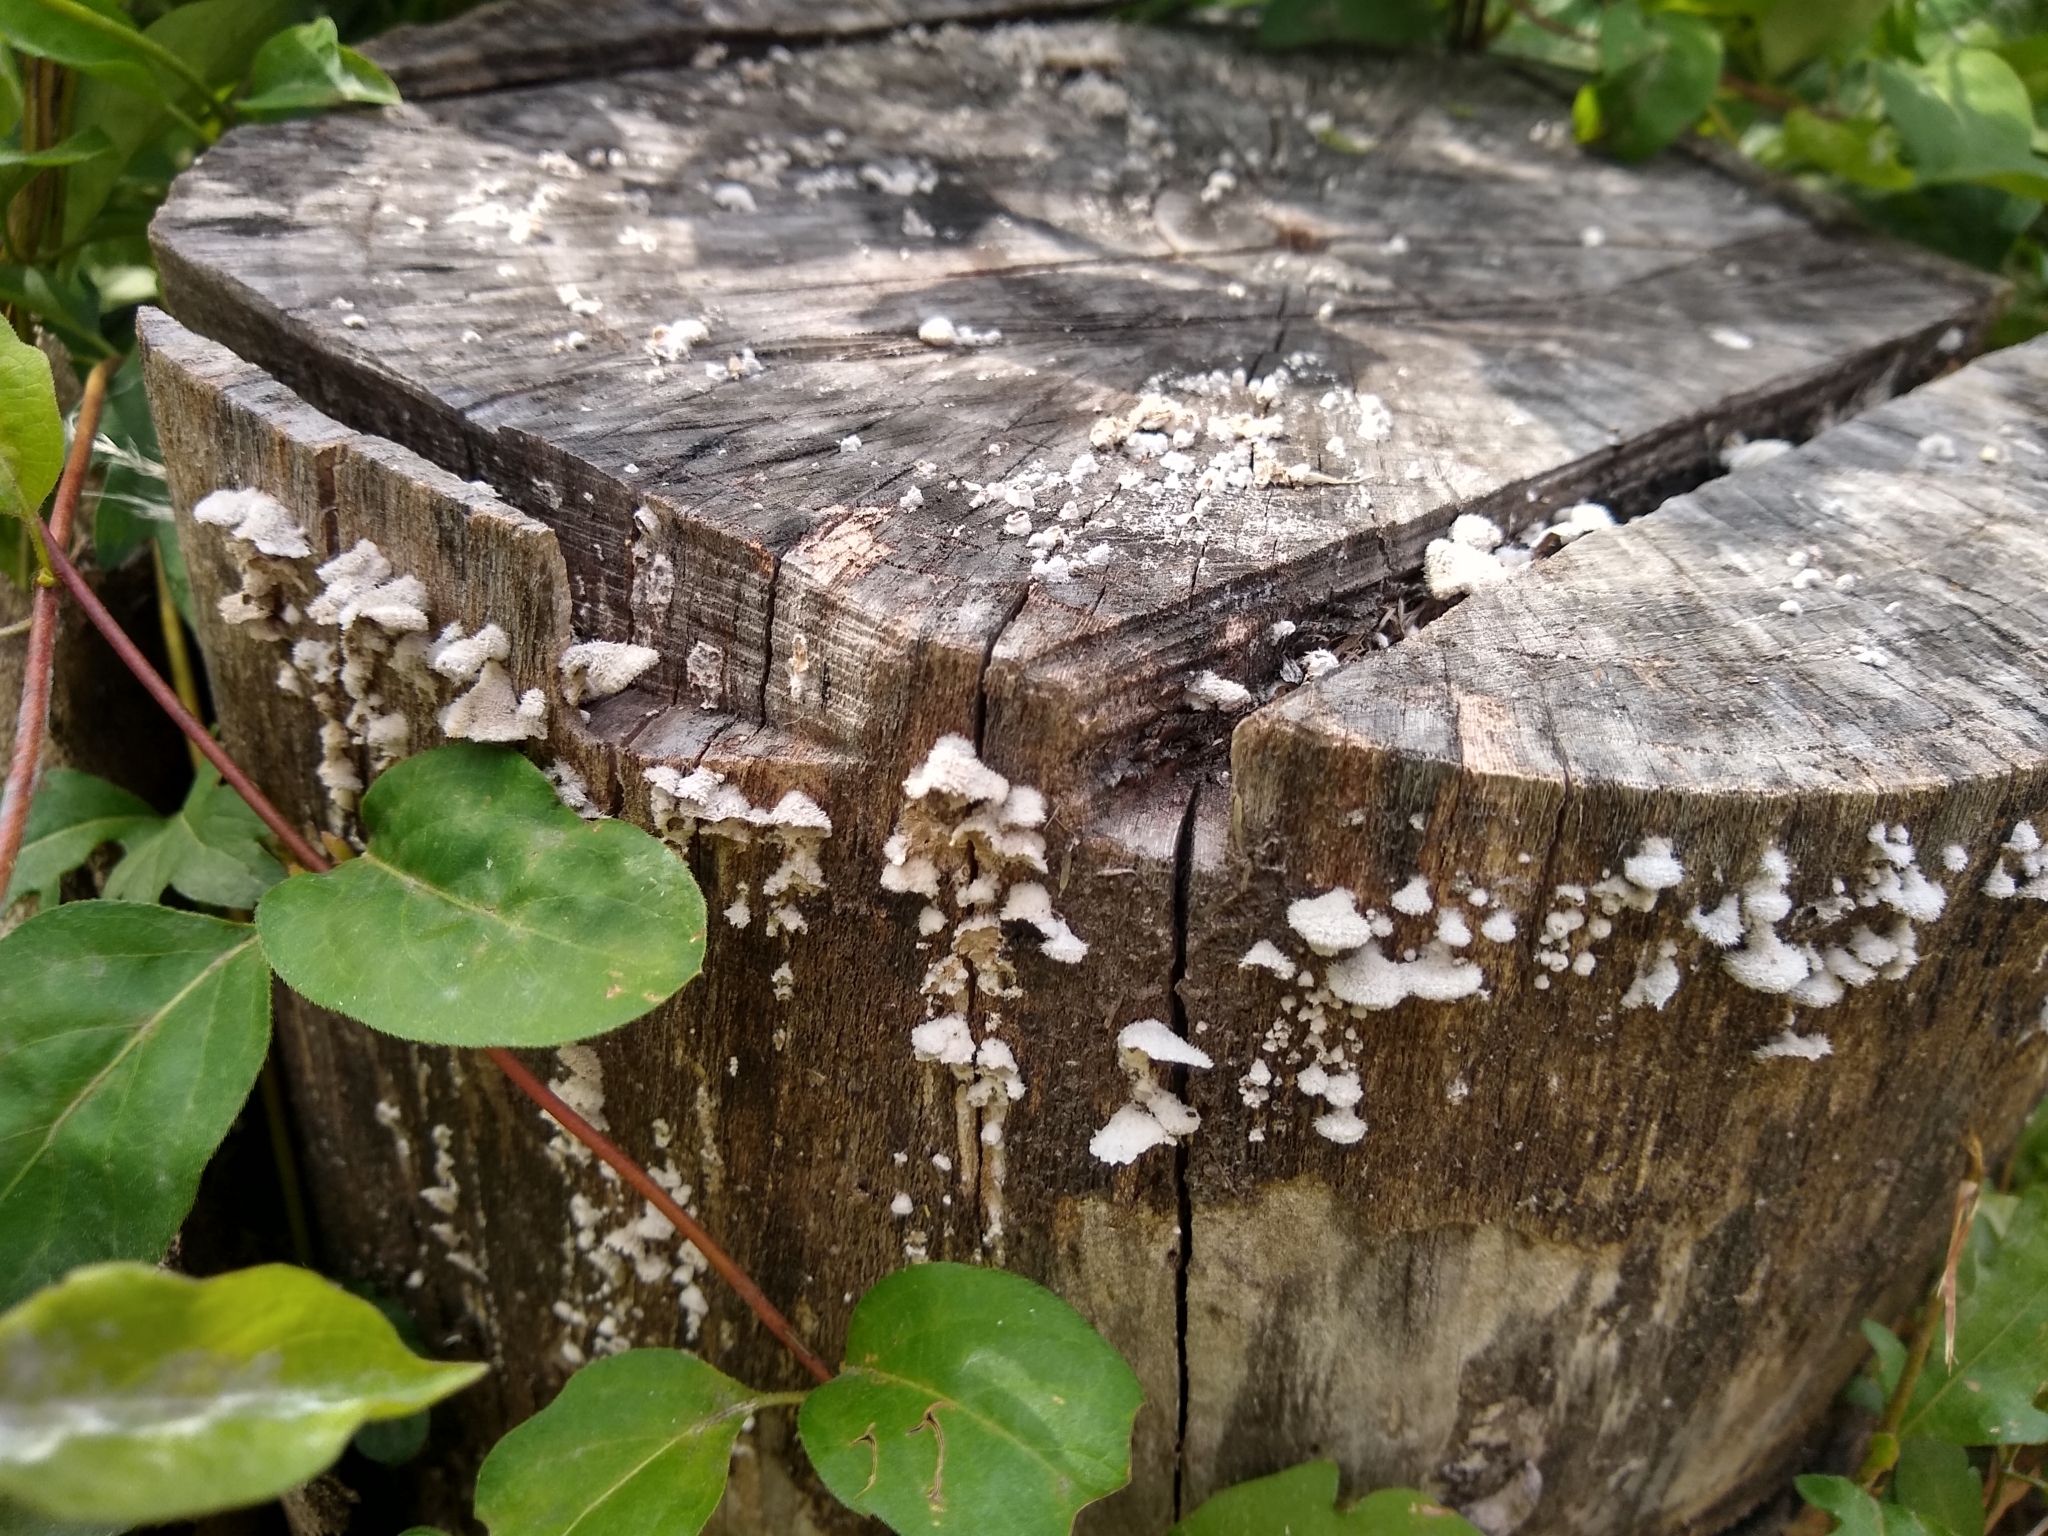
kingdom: Fungi
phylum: Basidiomycota
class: Agaricomycetes
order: Agaricales
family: Schizophyllaceae
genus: Schizophyllum
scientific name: Schizophyllum commune
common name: Common porecrust
